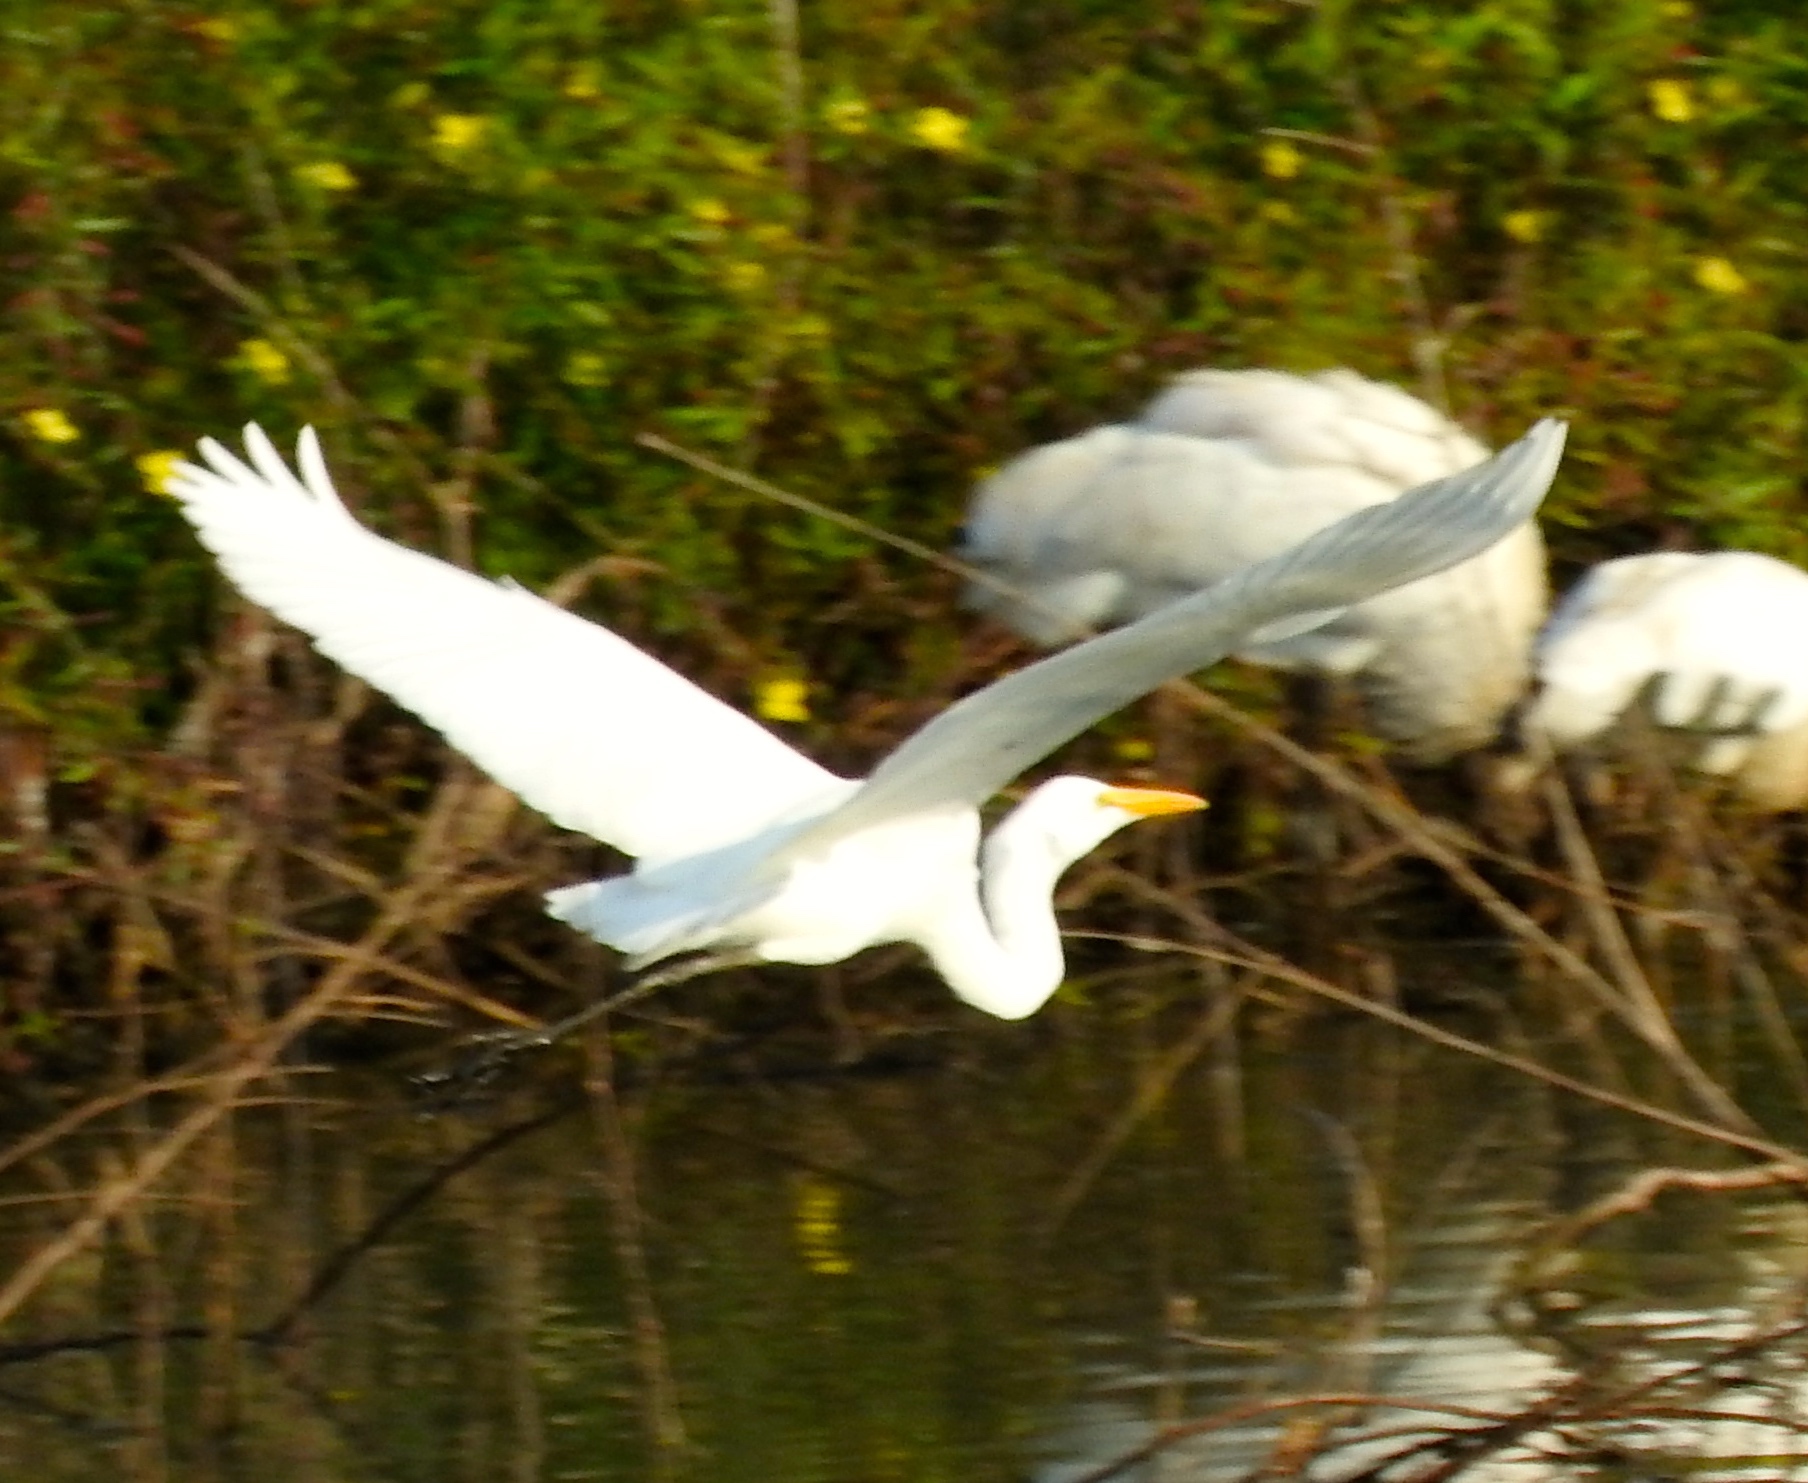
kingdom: Animalia
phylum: Chordata
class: Aves
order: Pelecaniformes
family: Ardeidae
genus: Ardea
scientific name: Ardea alba
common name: Great egret
